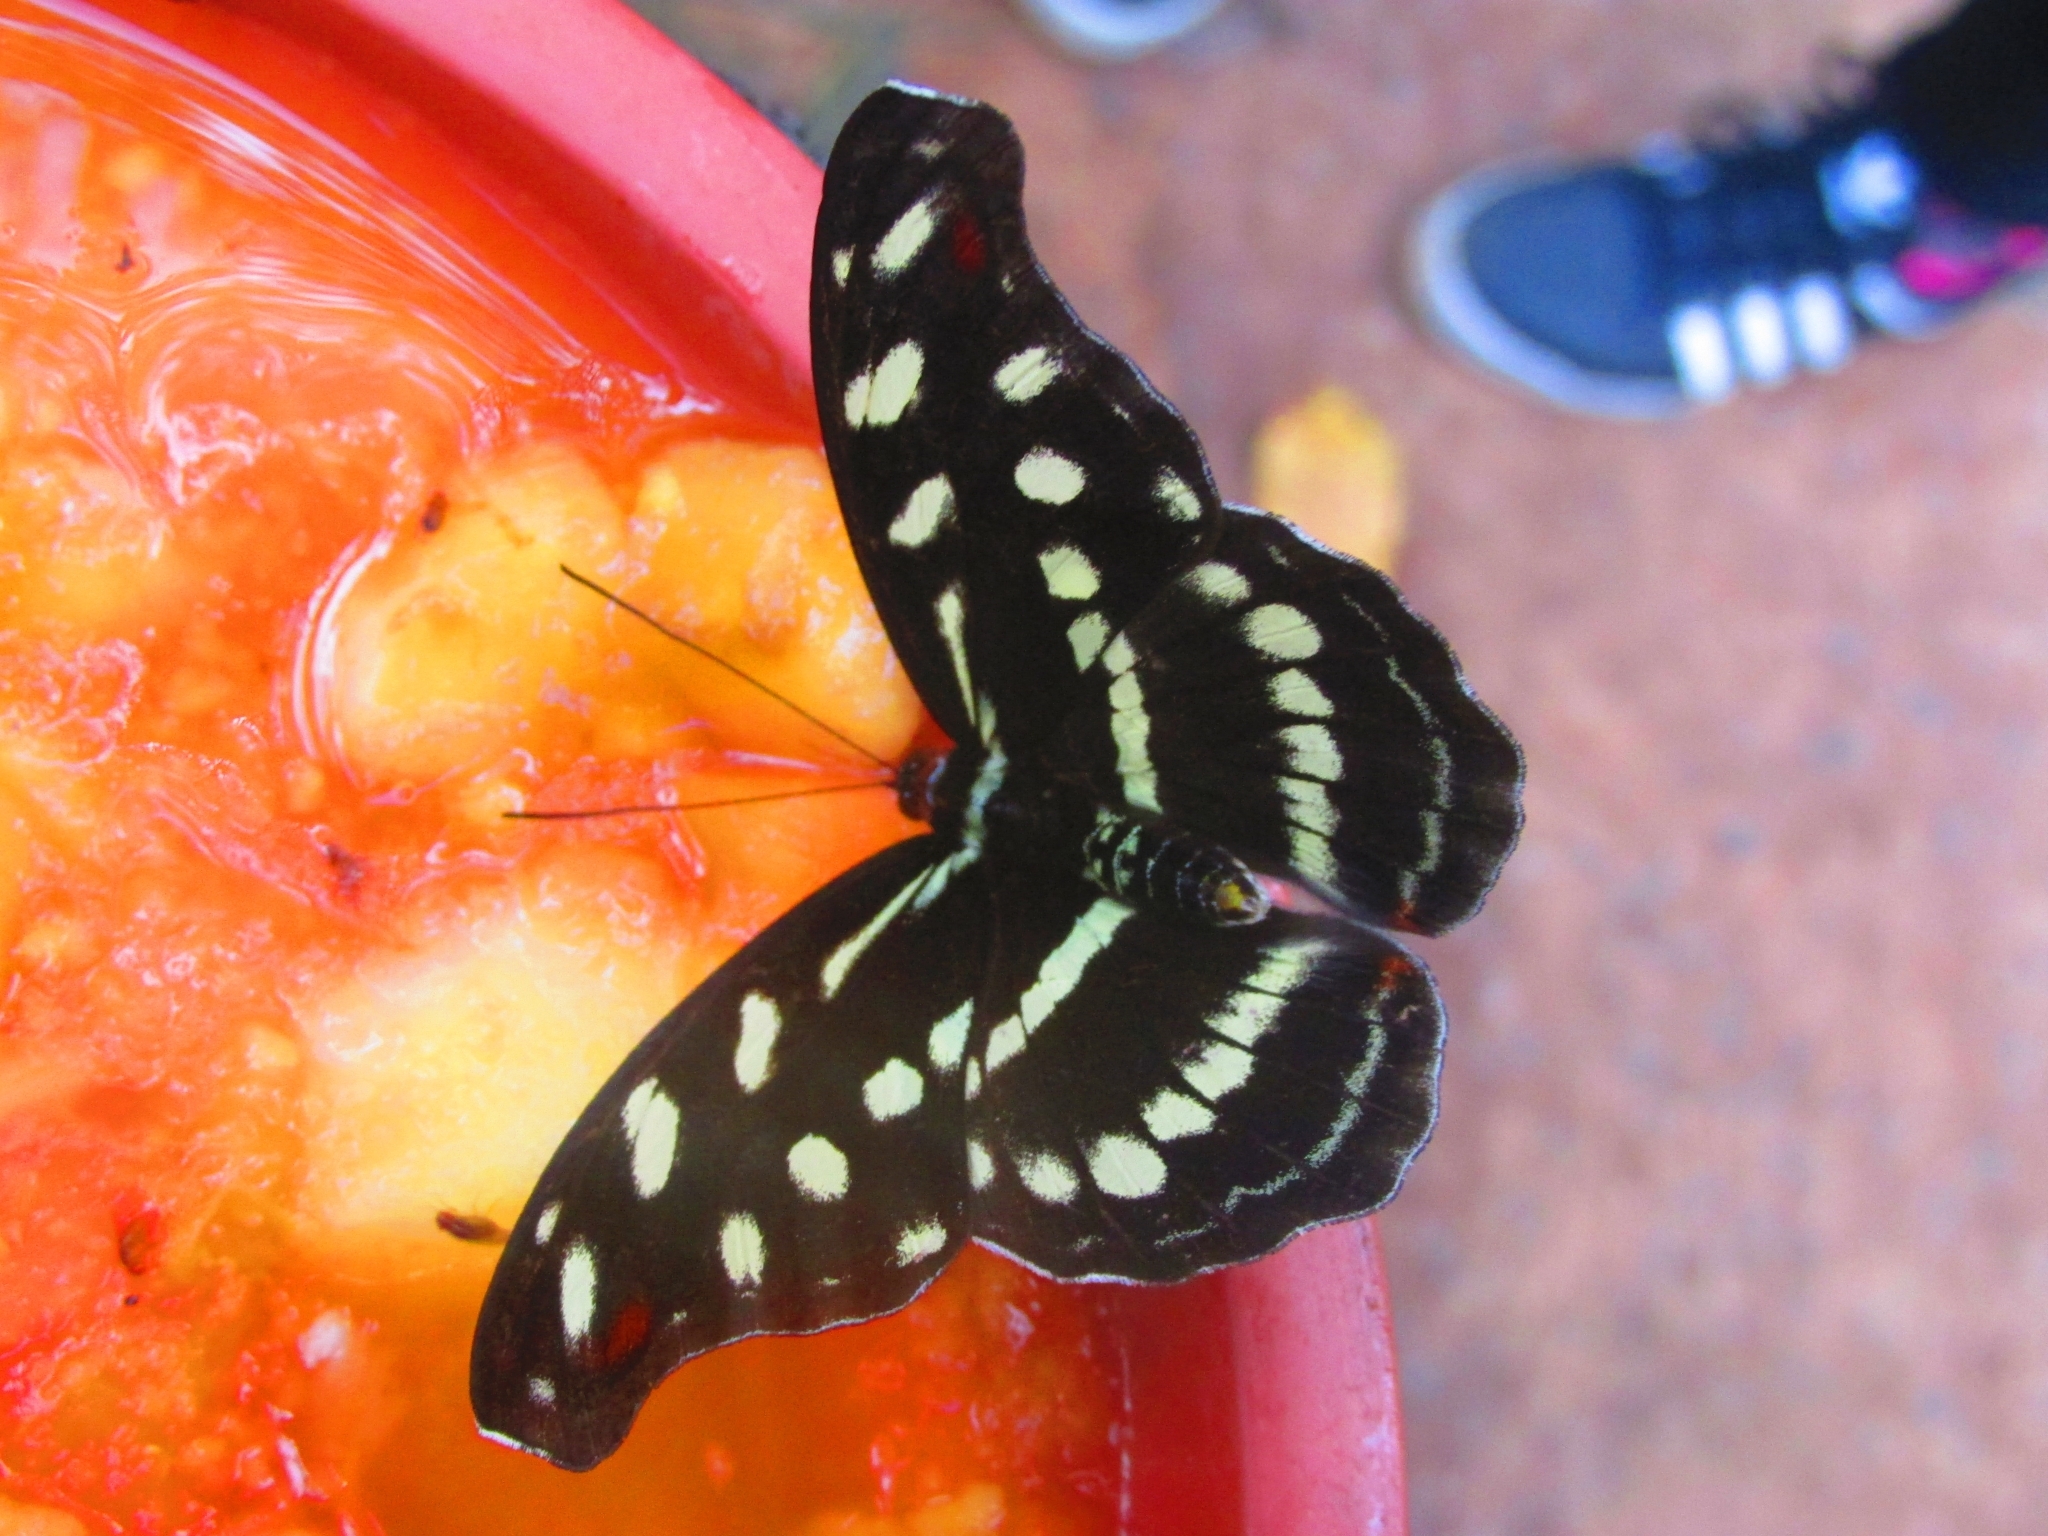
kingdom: Animalia
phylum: Arthropoda
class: Insecta
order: Lepidoptera
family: Nymphalidae
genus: Catonephele
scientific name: Catonephele acontius
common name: Unspotted firewing
